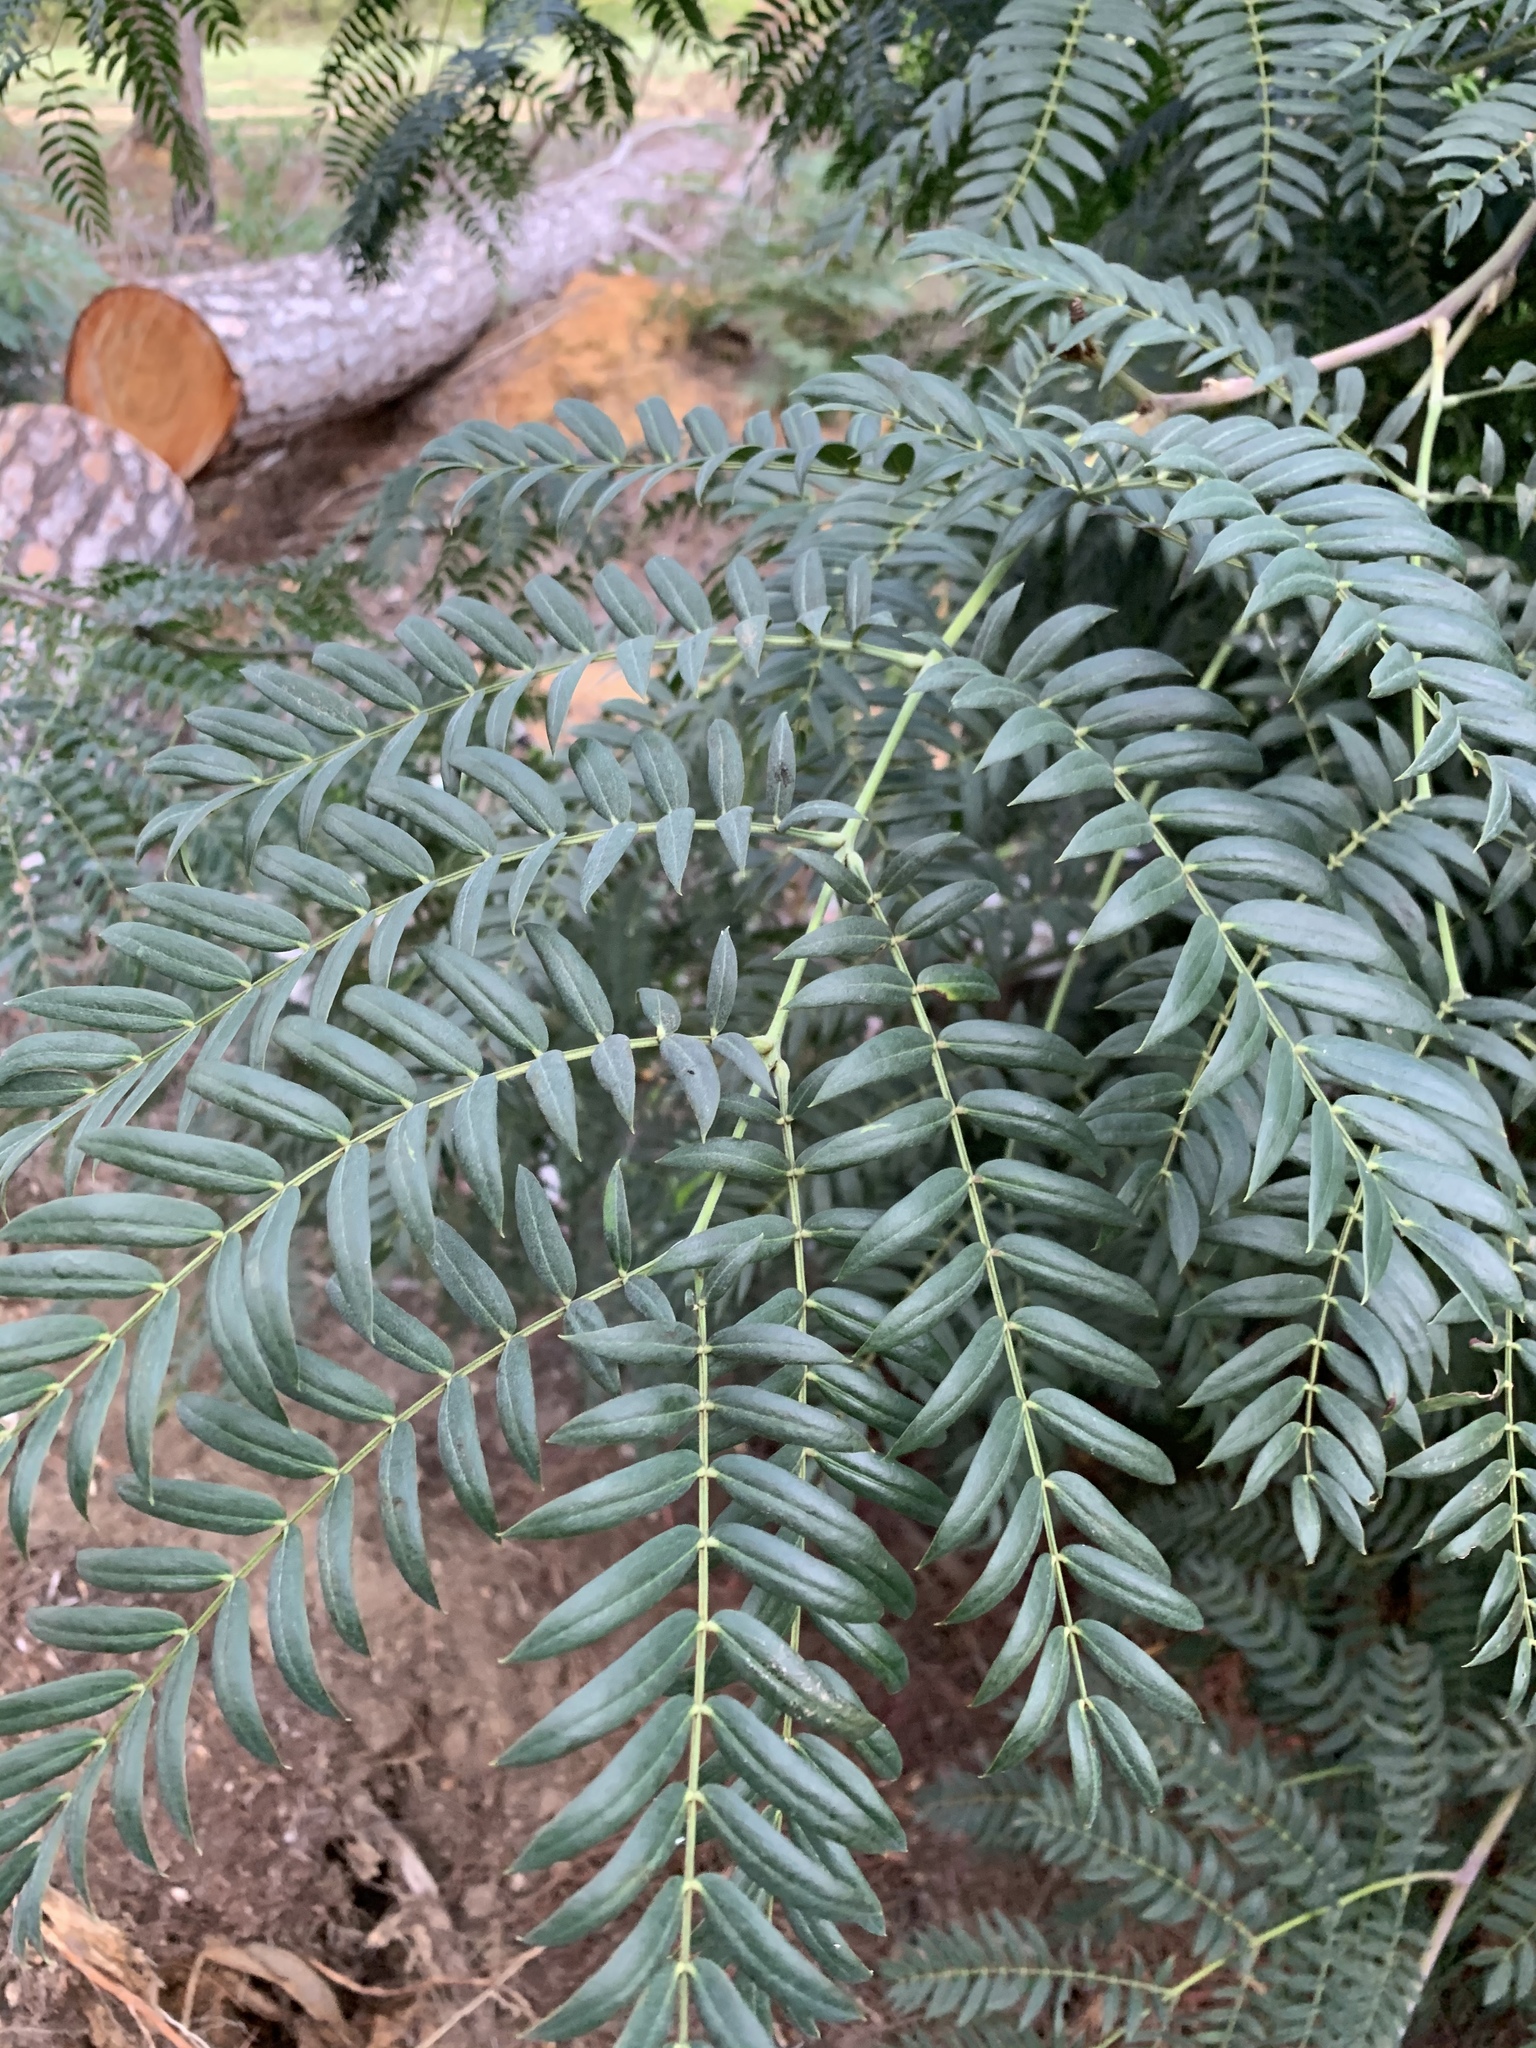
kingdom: Plantae
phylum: Tracheophyta
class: Magnoliopsida
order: Fabales
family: Fabaceae
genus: Acacia
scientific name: Acacia elata
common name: Cedar wattle
